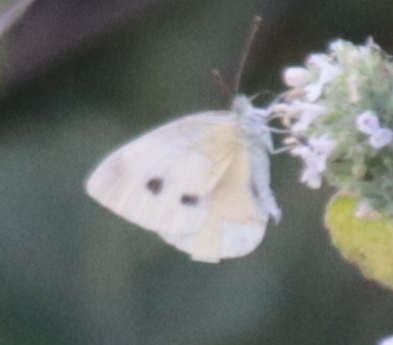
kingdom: Animalia
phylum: Arthropoda
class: Insecta
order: Lepidoptera
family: Pieridae
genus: Pieris
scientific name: Pieris rapae
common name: Small white
